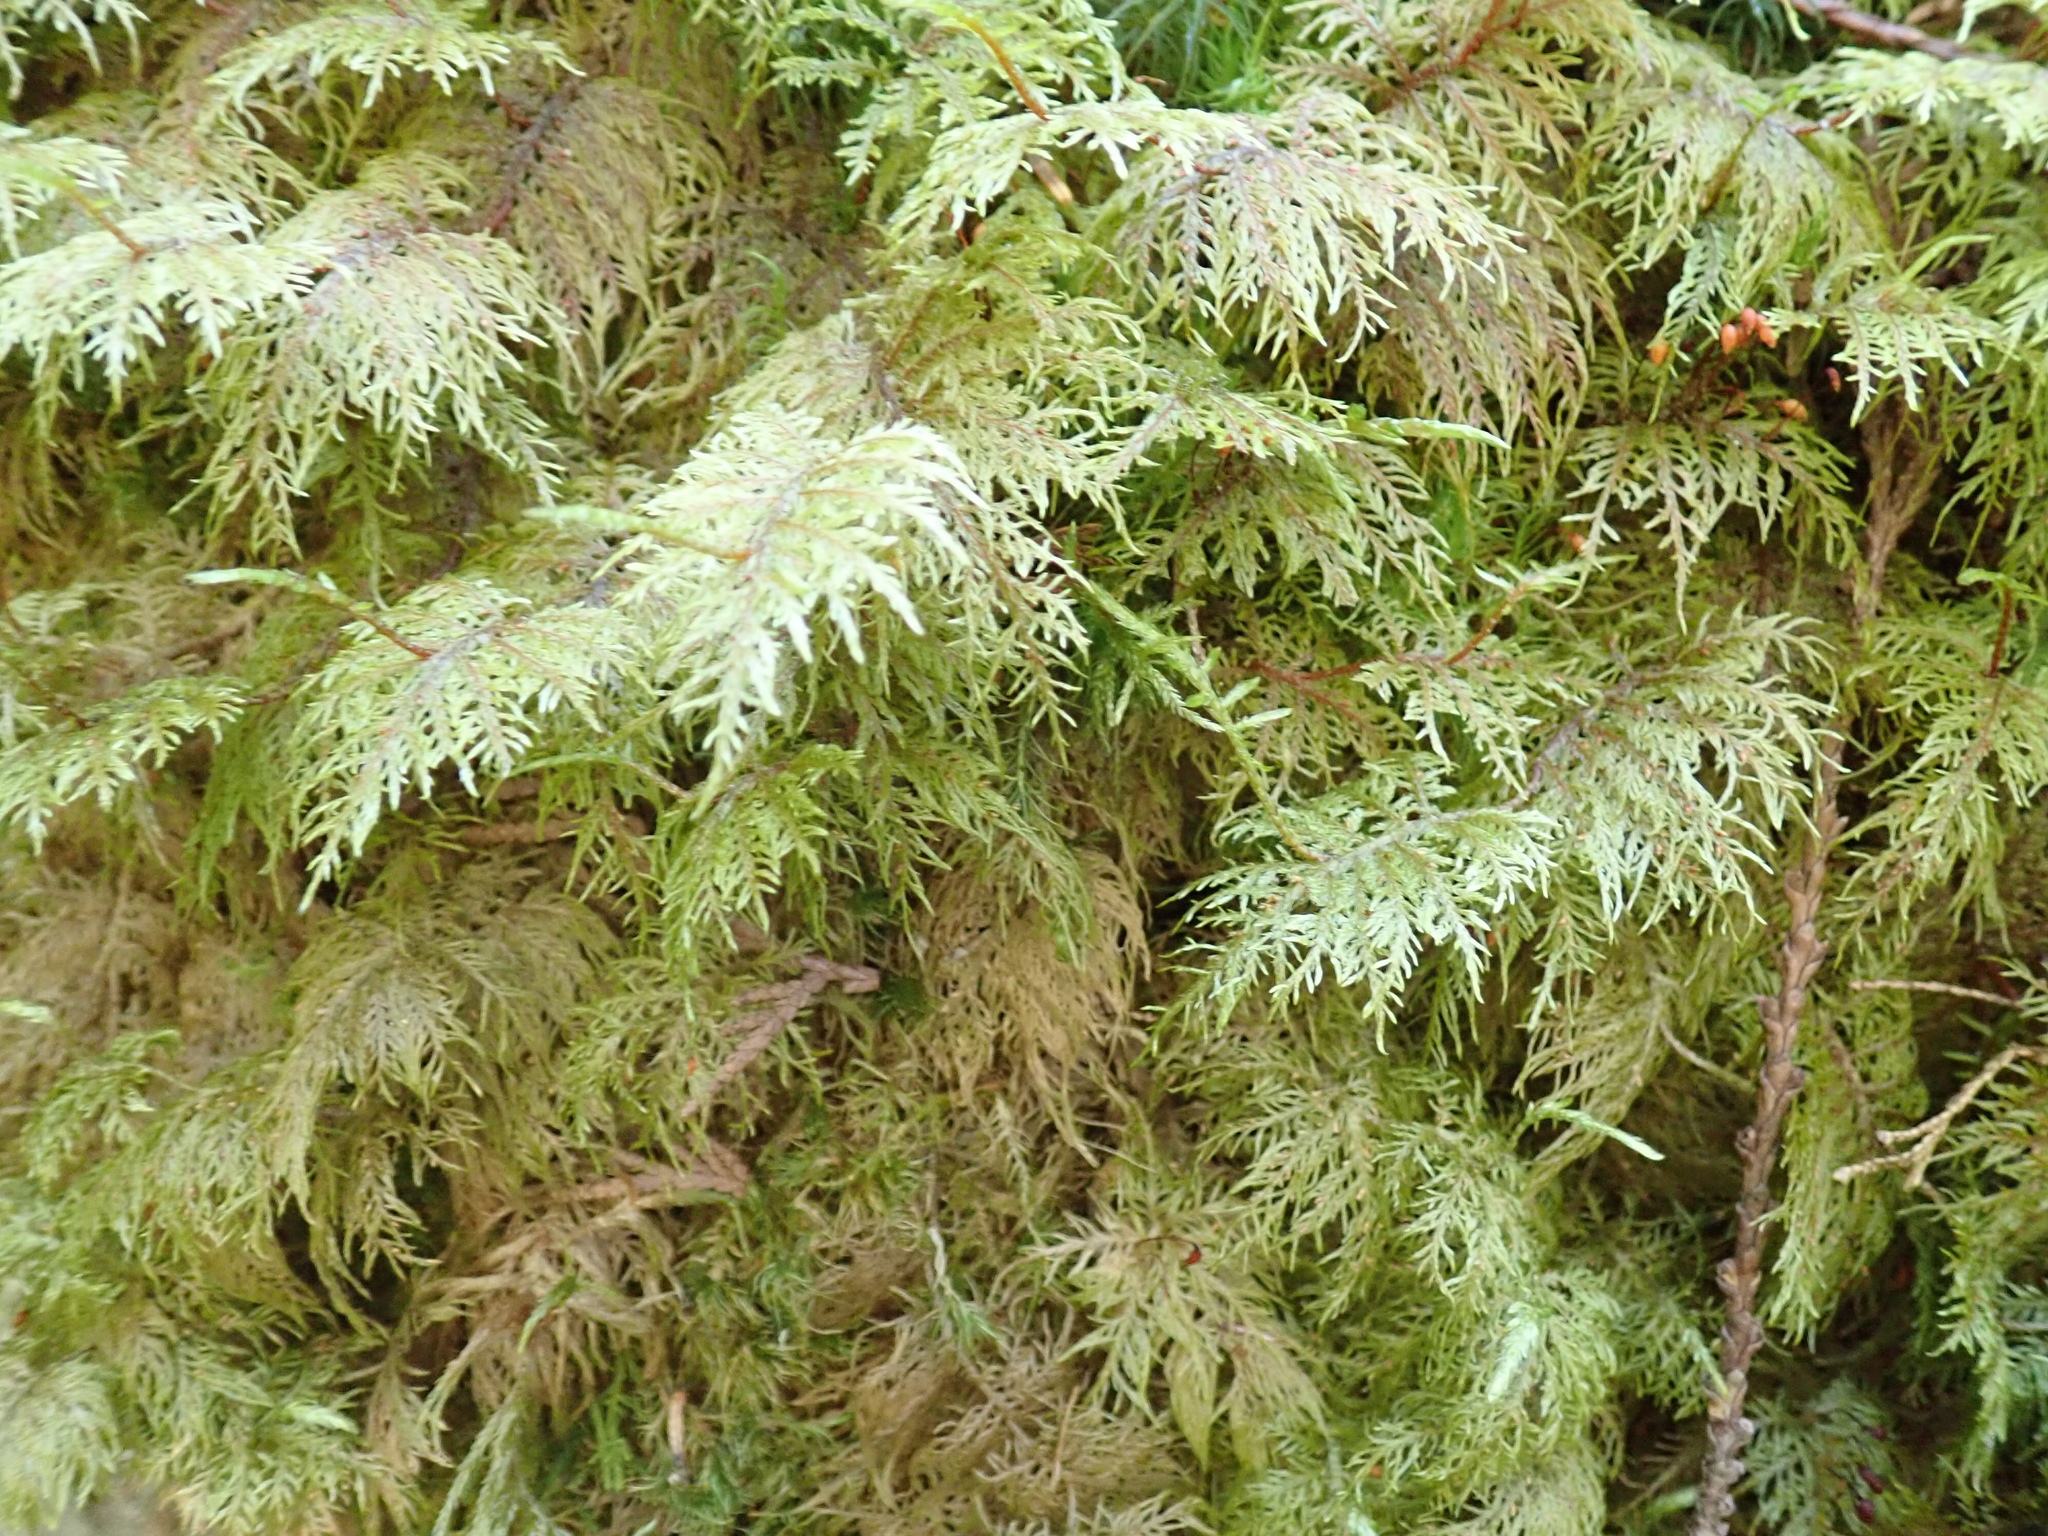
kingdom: Plantae
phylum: Bryophyta
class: Bryopsida
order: Hypnales
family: Hylocomiaceae
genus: Hylocomium
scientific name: Hylocomium splendens
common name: Stairstep moss
